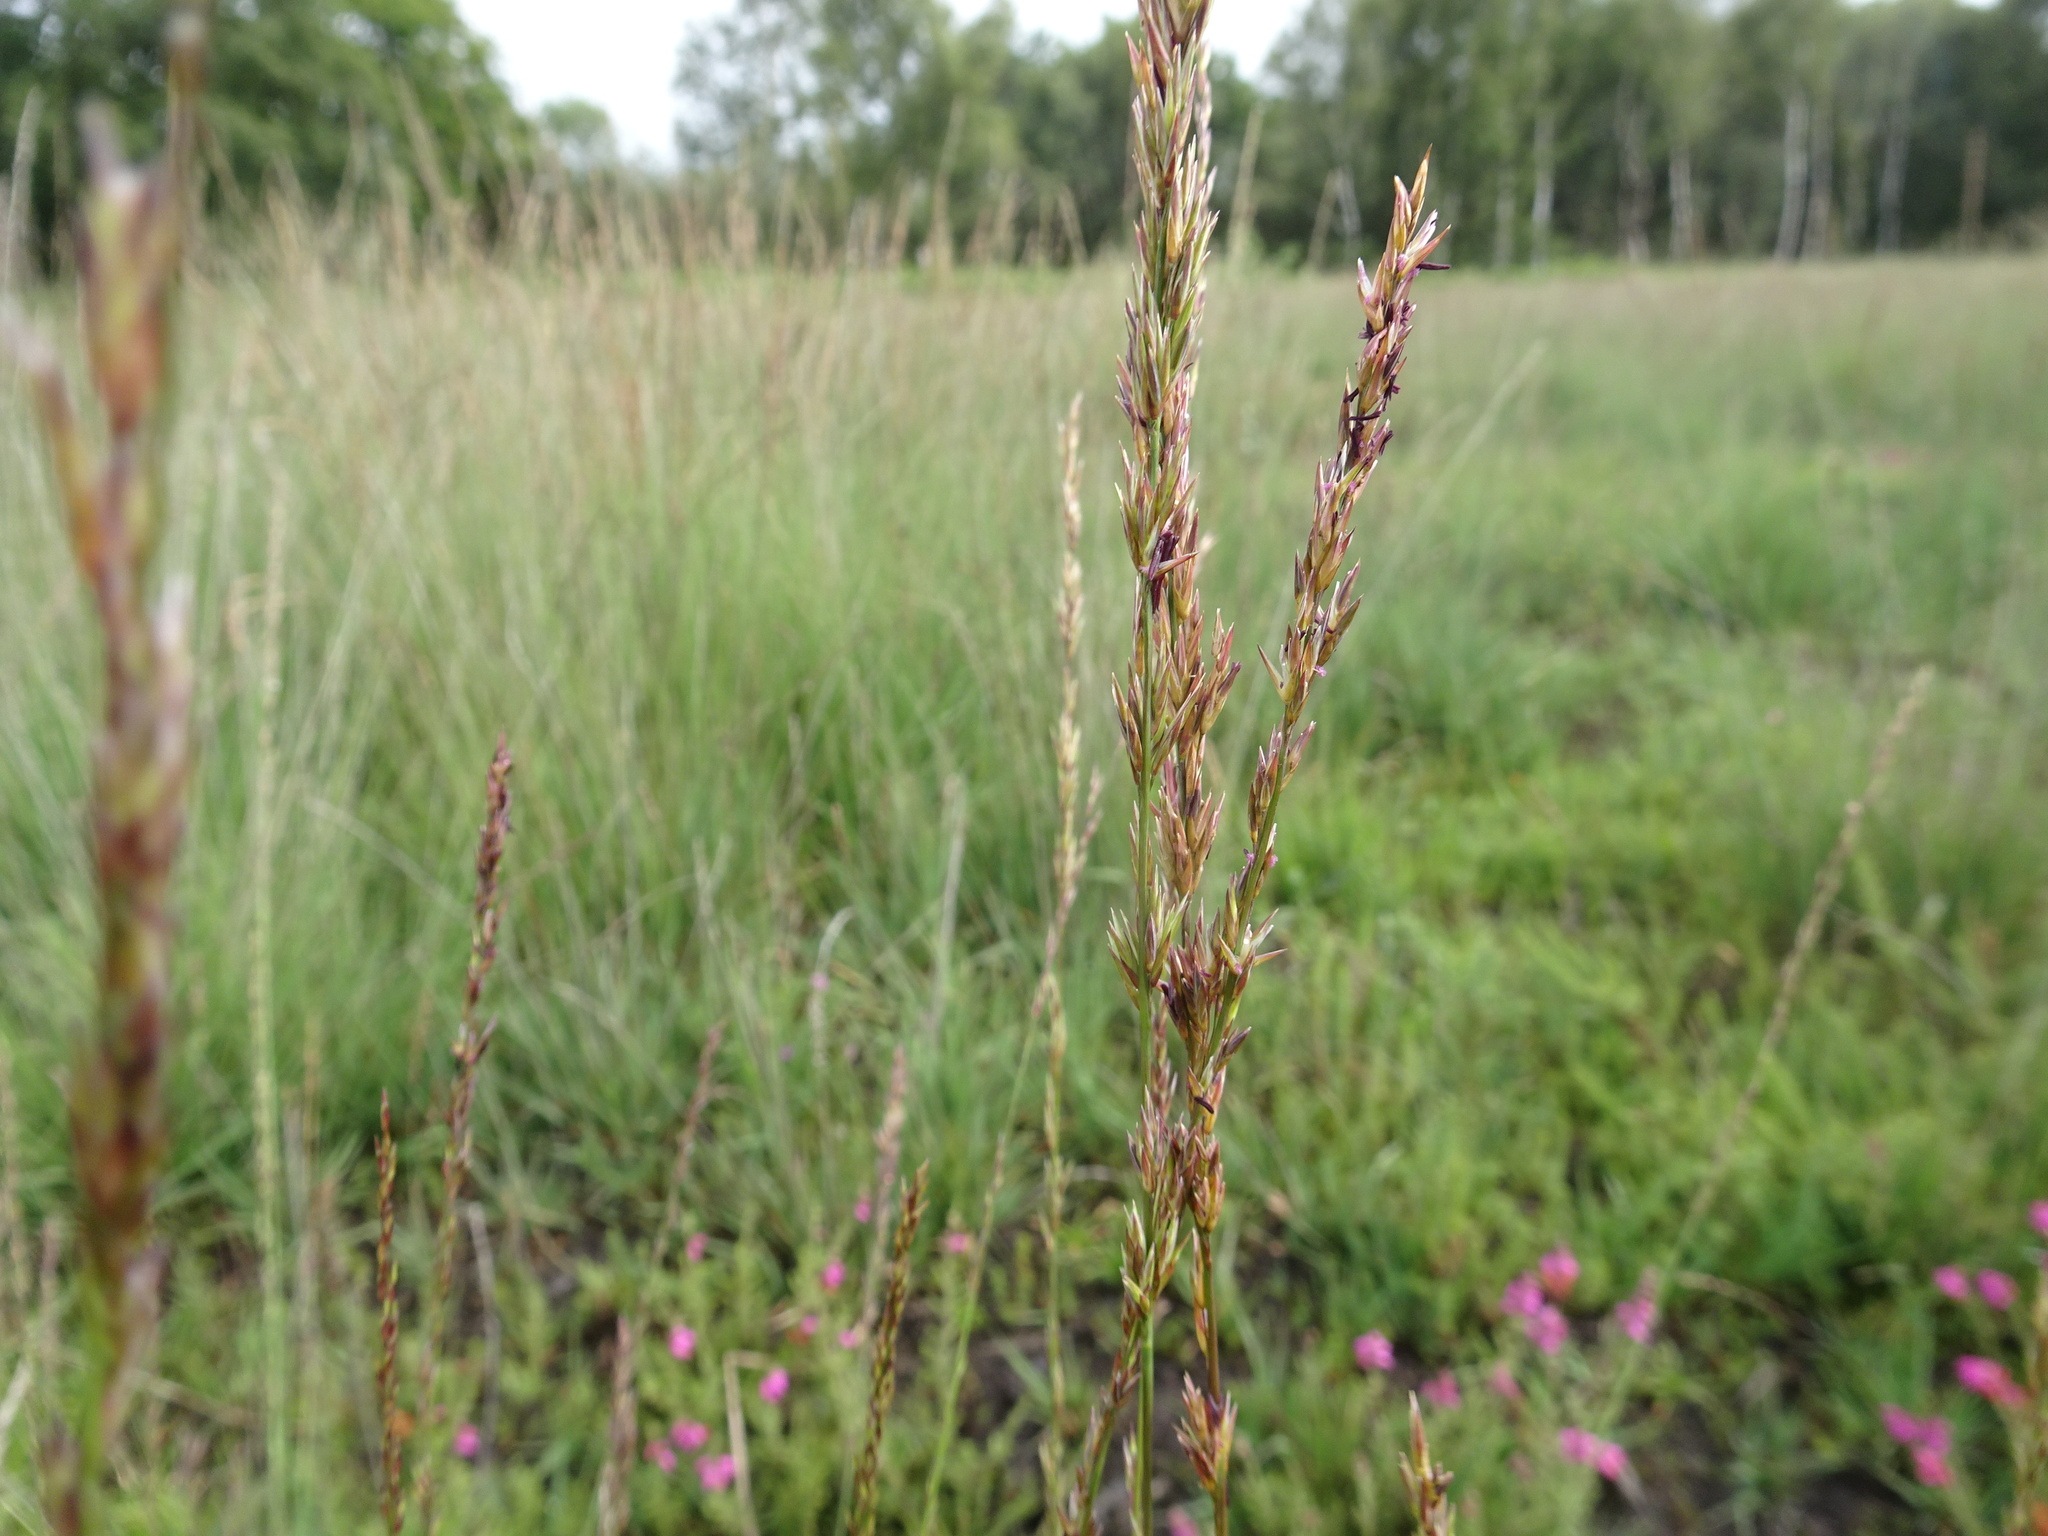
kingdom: Plantae
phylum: Tracheophyta
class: Liliopsida
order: Poales
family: Poaceae
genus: Molinia
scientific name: Molinia caerulea
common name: Purple moor-grass
